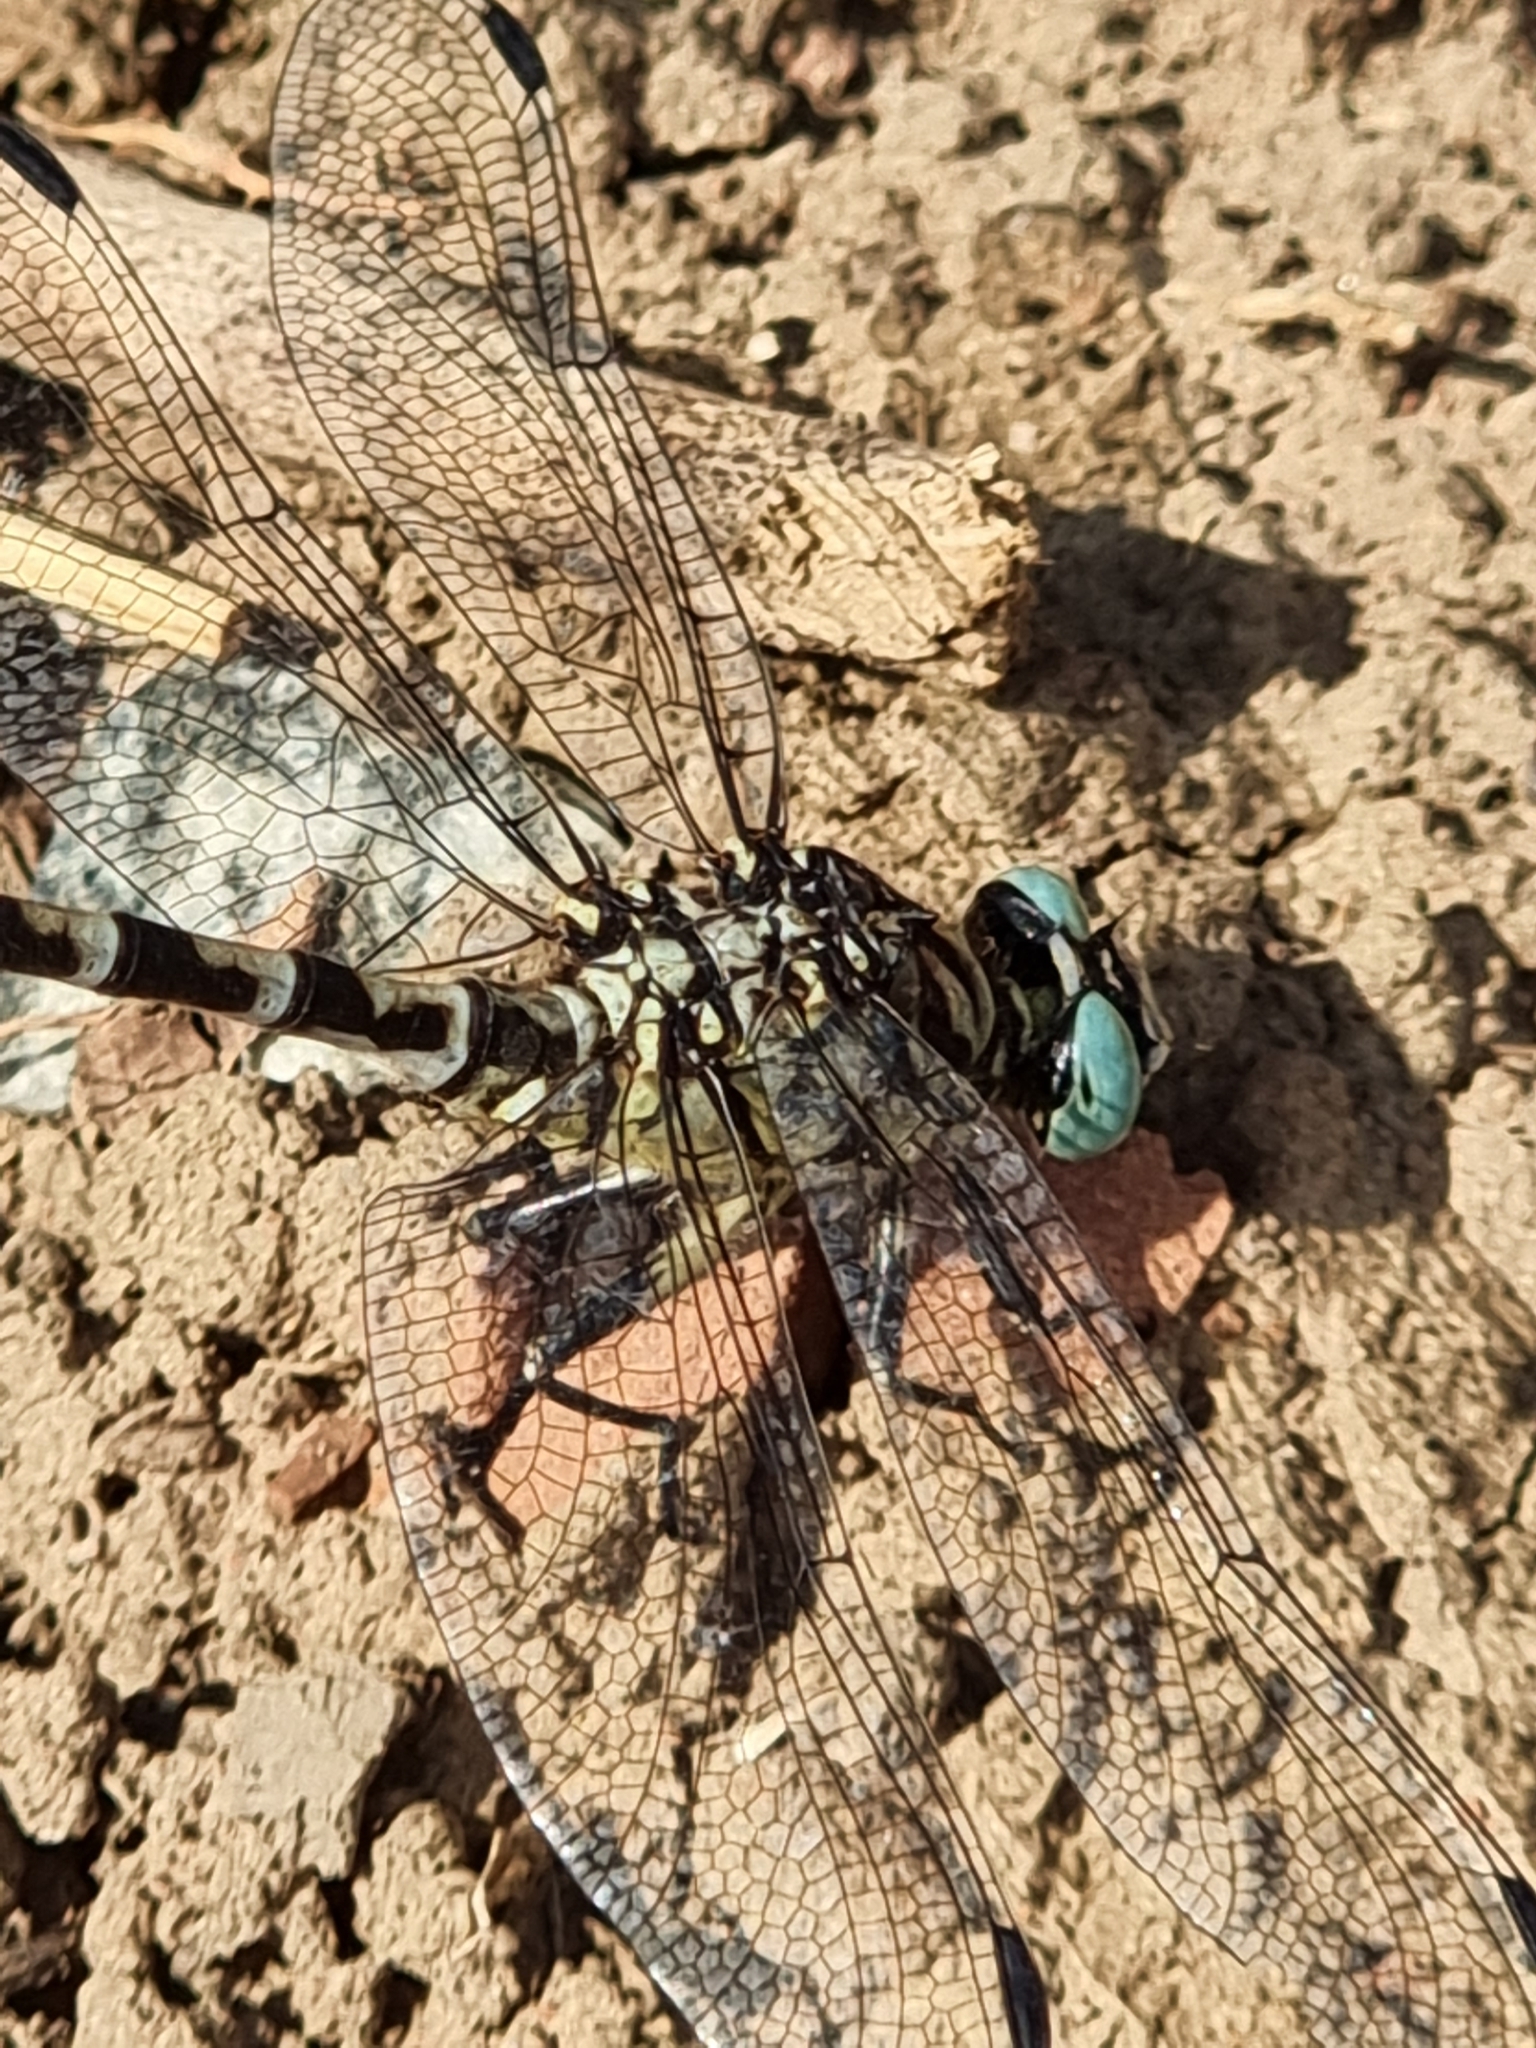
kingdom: Animalia
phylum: Arthropoda
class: Insecta
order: Odonata
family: Gomphidae
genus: Onychogomphus
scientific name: Onychogomphus forcipatus
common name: Small pincertail
